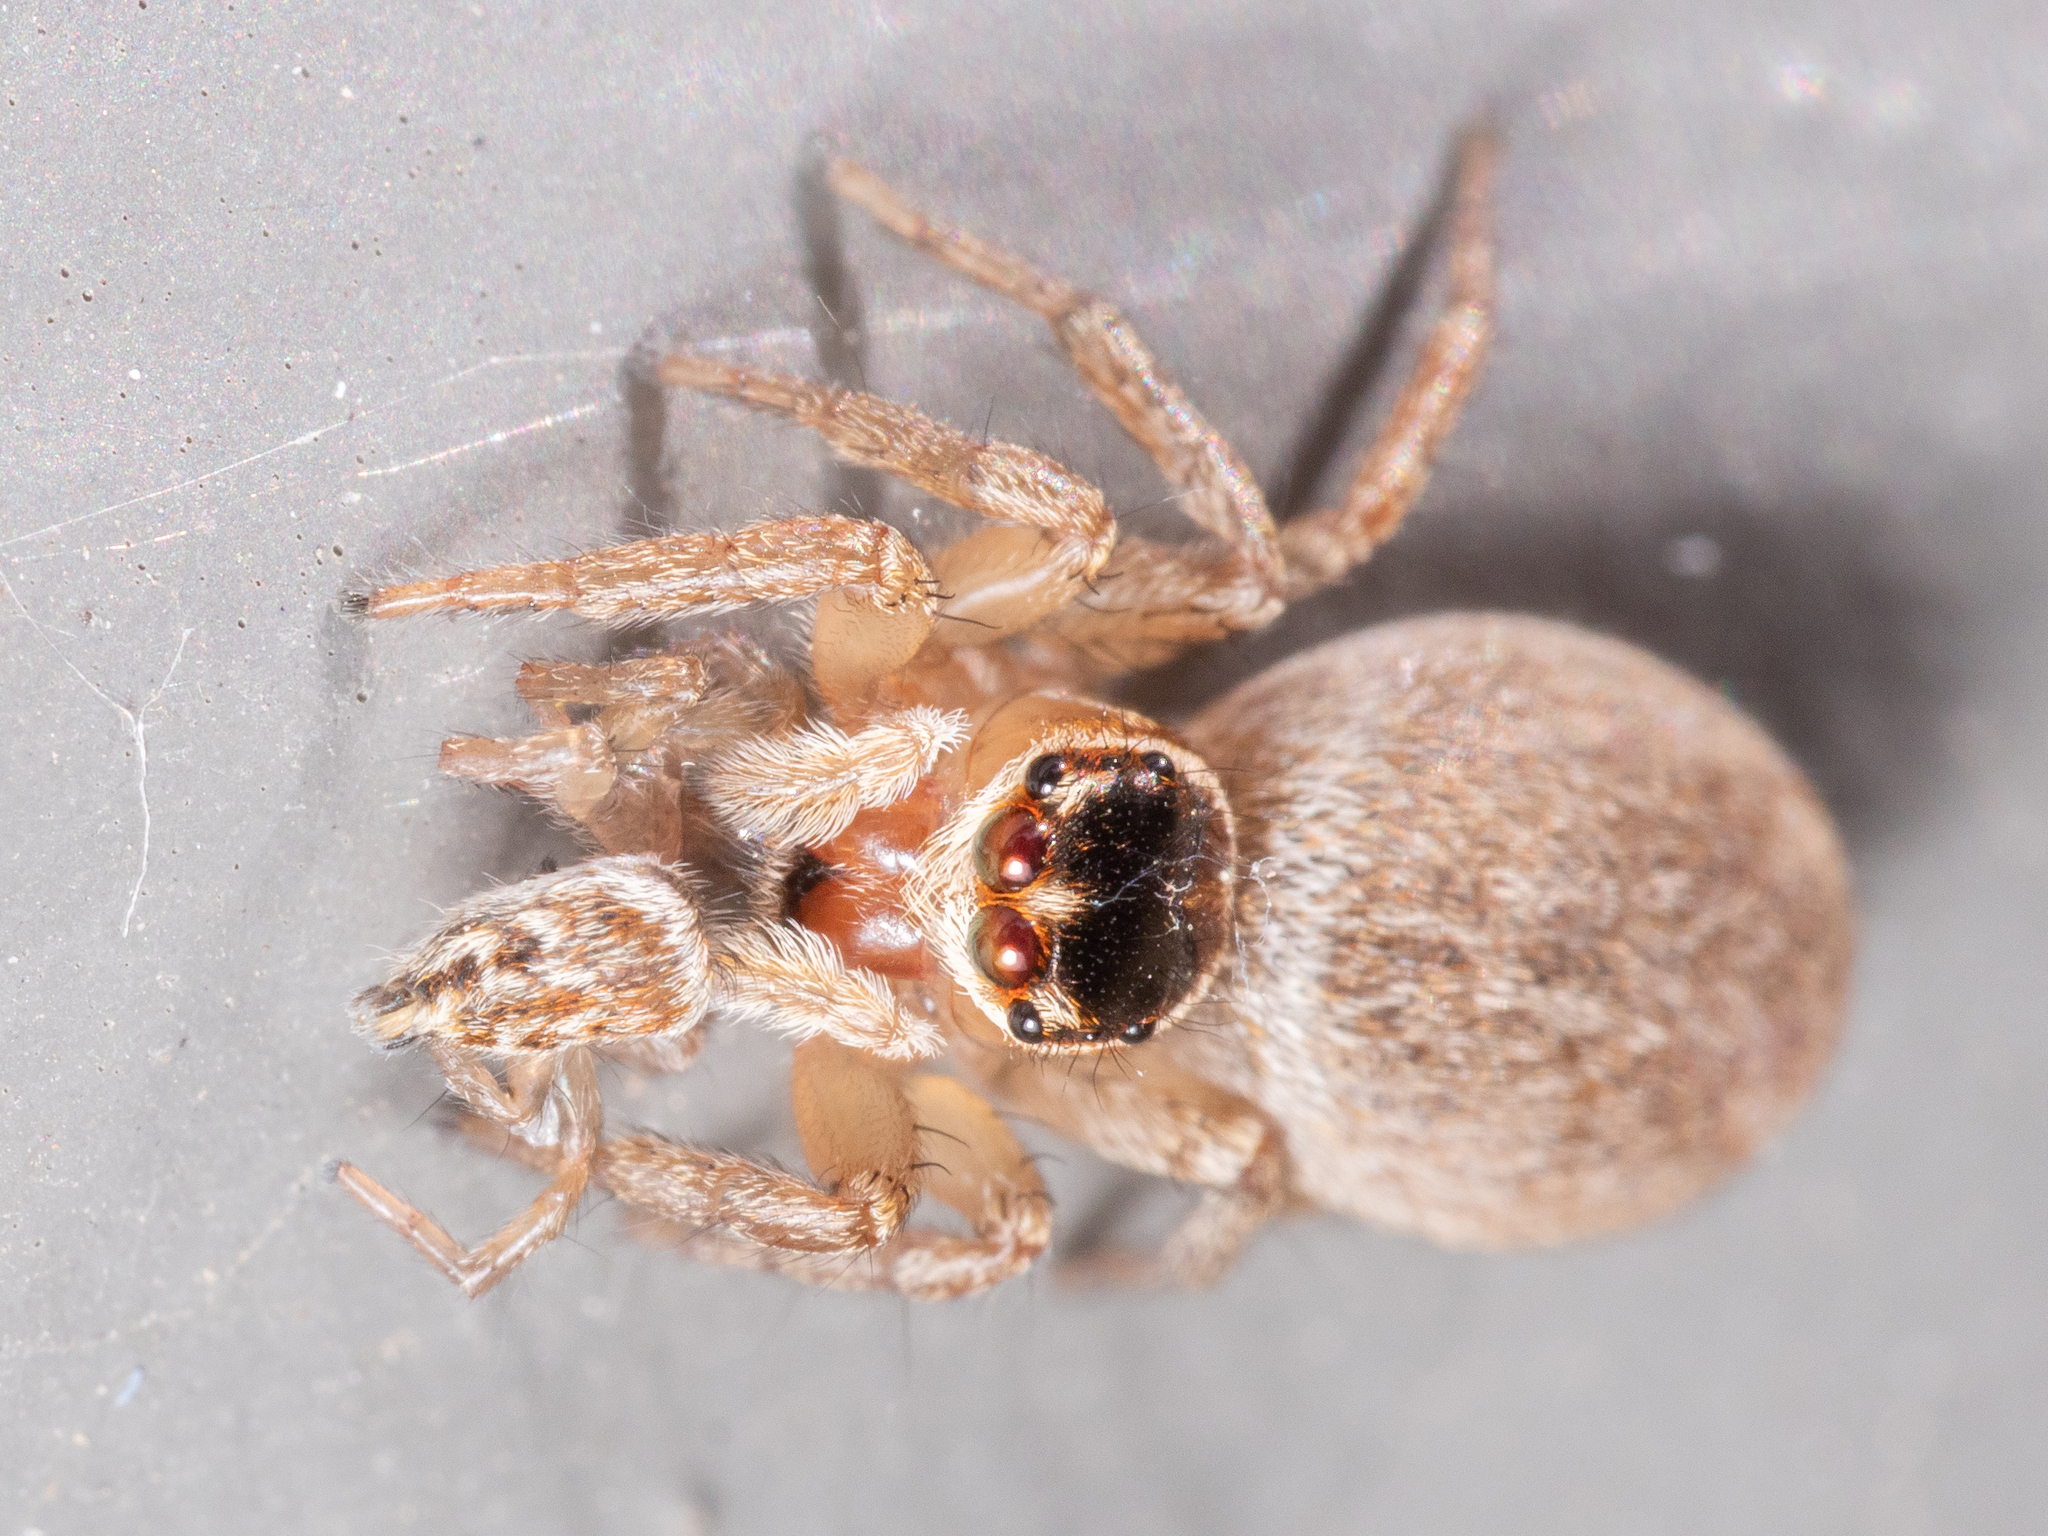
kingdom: Animalia
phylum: Arthropoda
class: Arachnida
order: Araneae
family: Salticidae
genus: Maratus
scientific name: Maratus griseus
